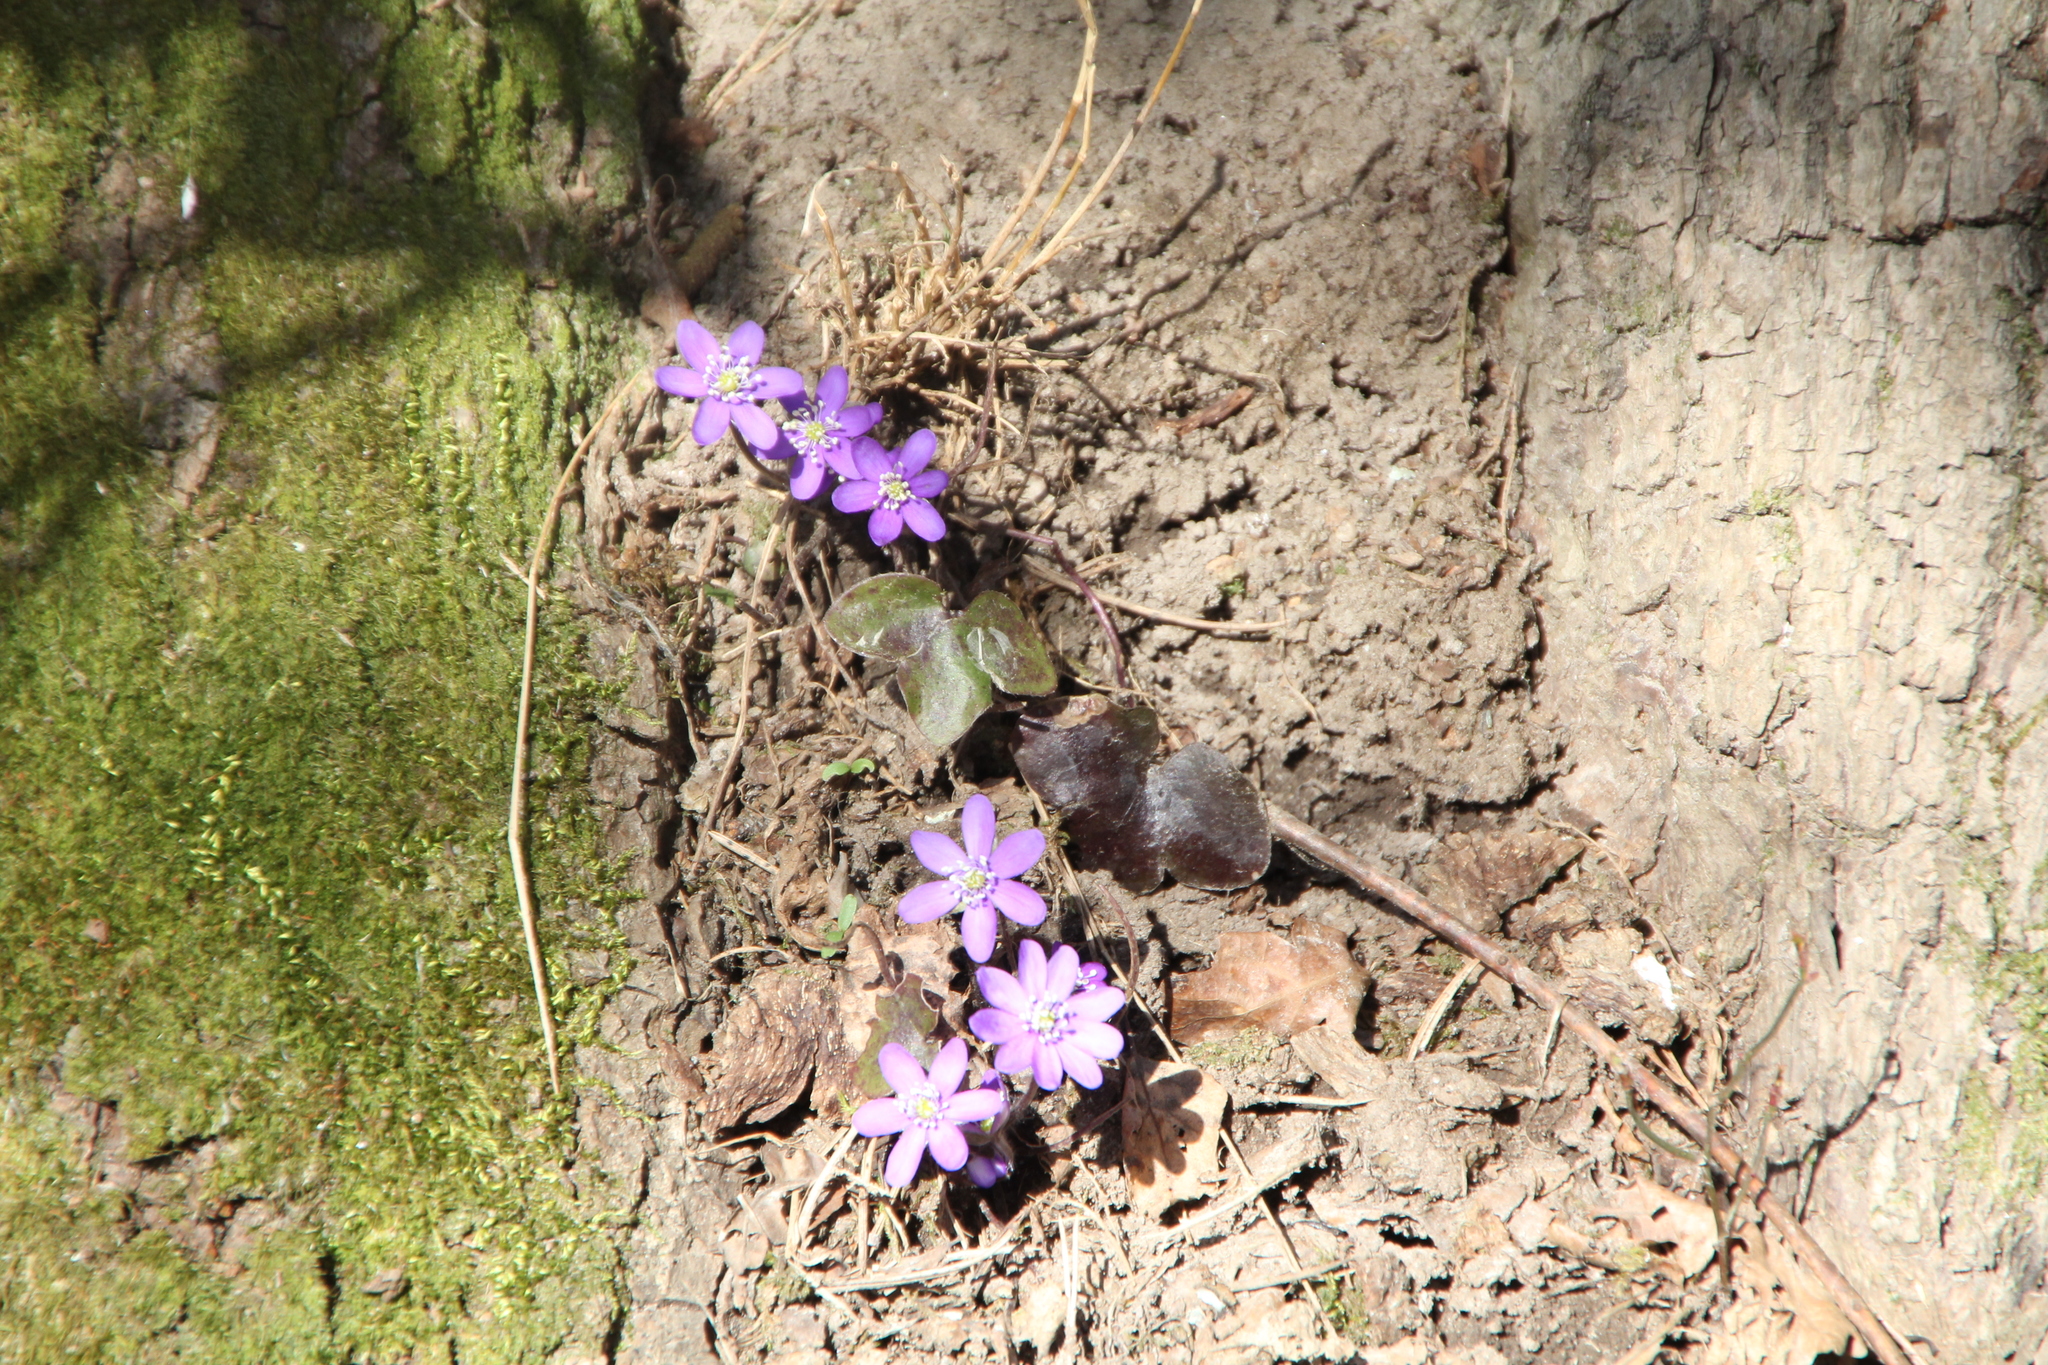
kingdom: Plantae
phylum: Tracheophyta
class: Magnoliopsida
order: Ranunculales
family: Ranunculaceae
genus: Hepatica
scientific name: Hepatica nobilis
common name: Liverleaf
